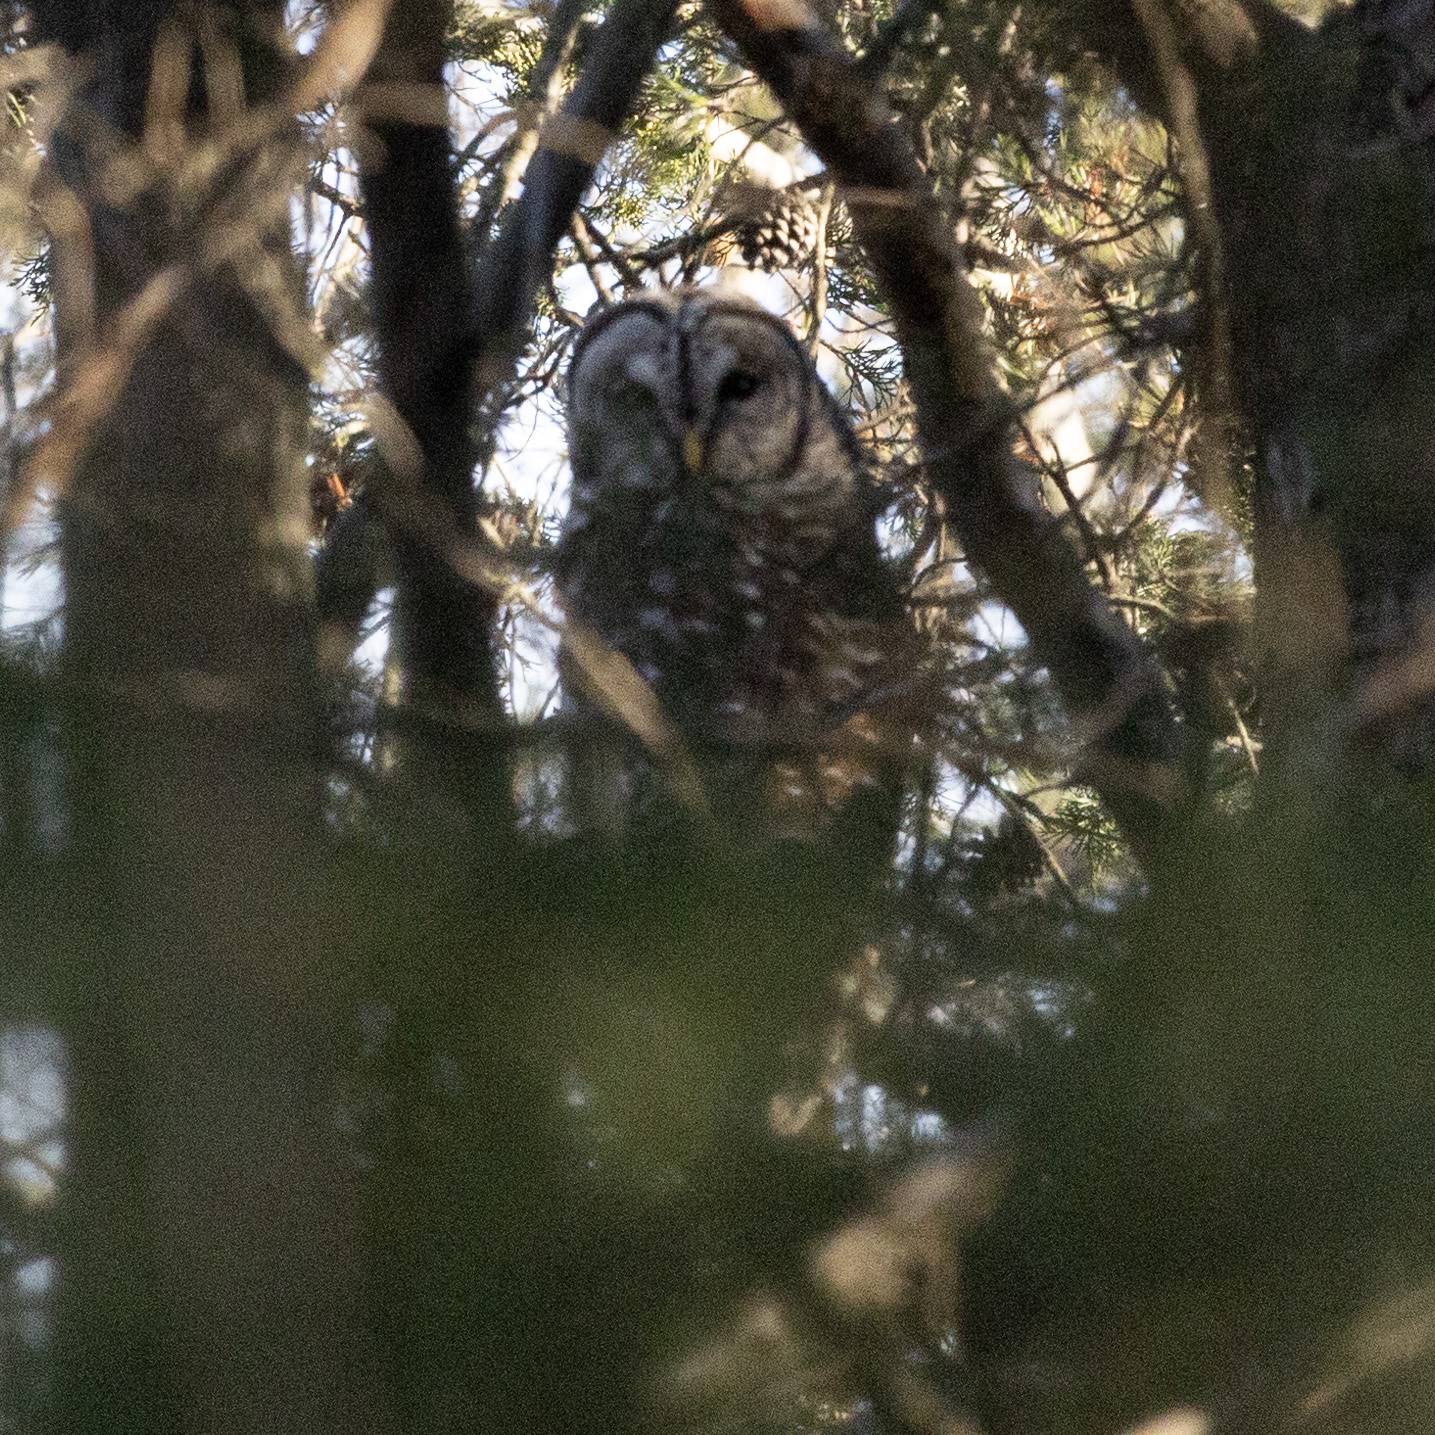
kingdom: Animalia
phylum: Chordata
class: Aves
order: Strigiformes
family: Strigidae
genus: Strix
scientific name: Strix varia
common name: Barred owl
